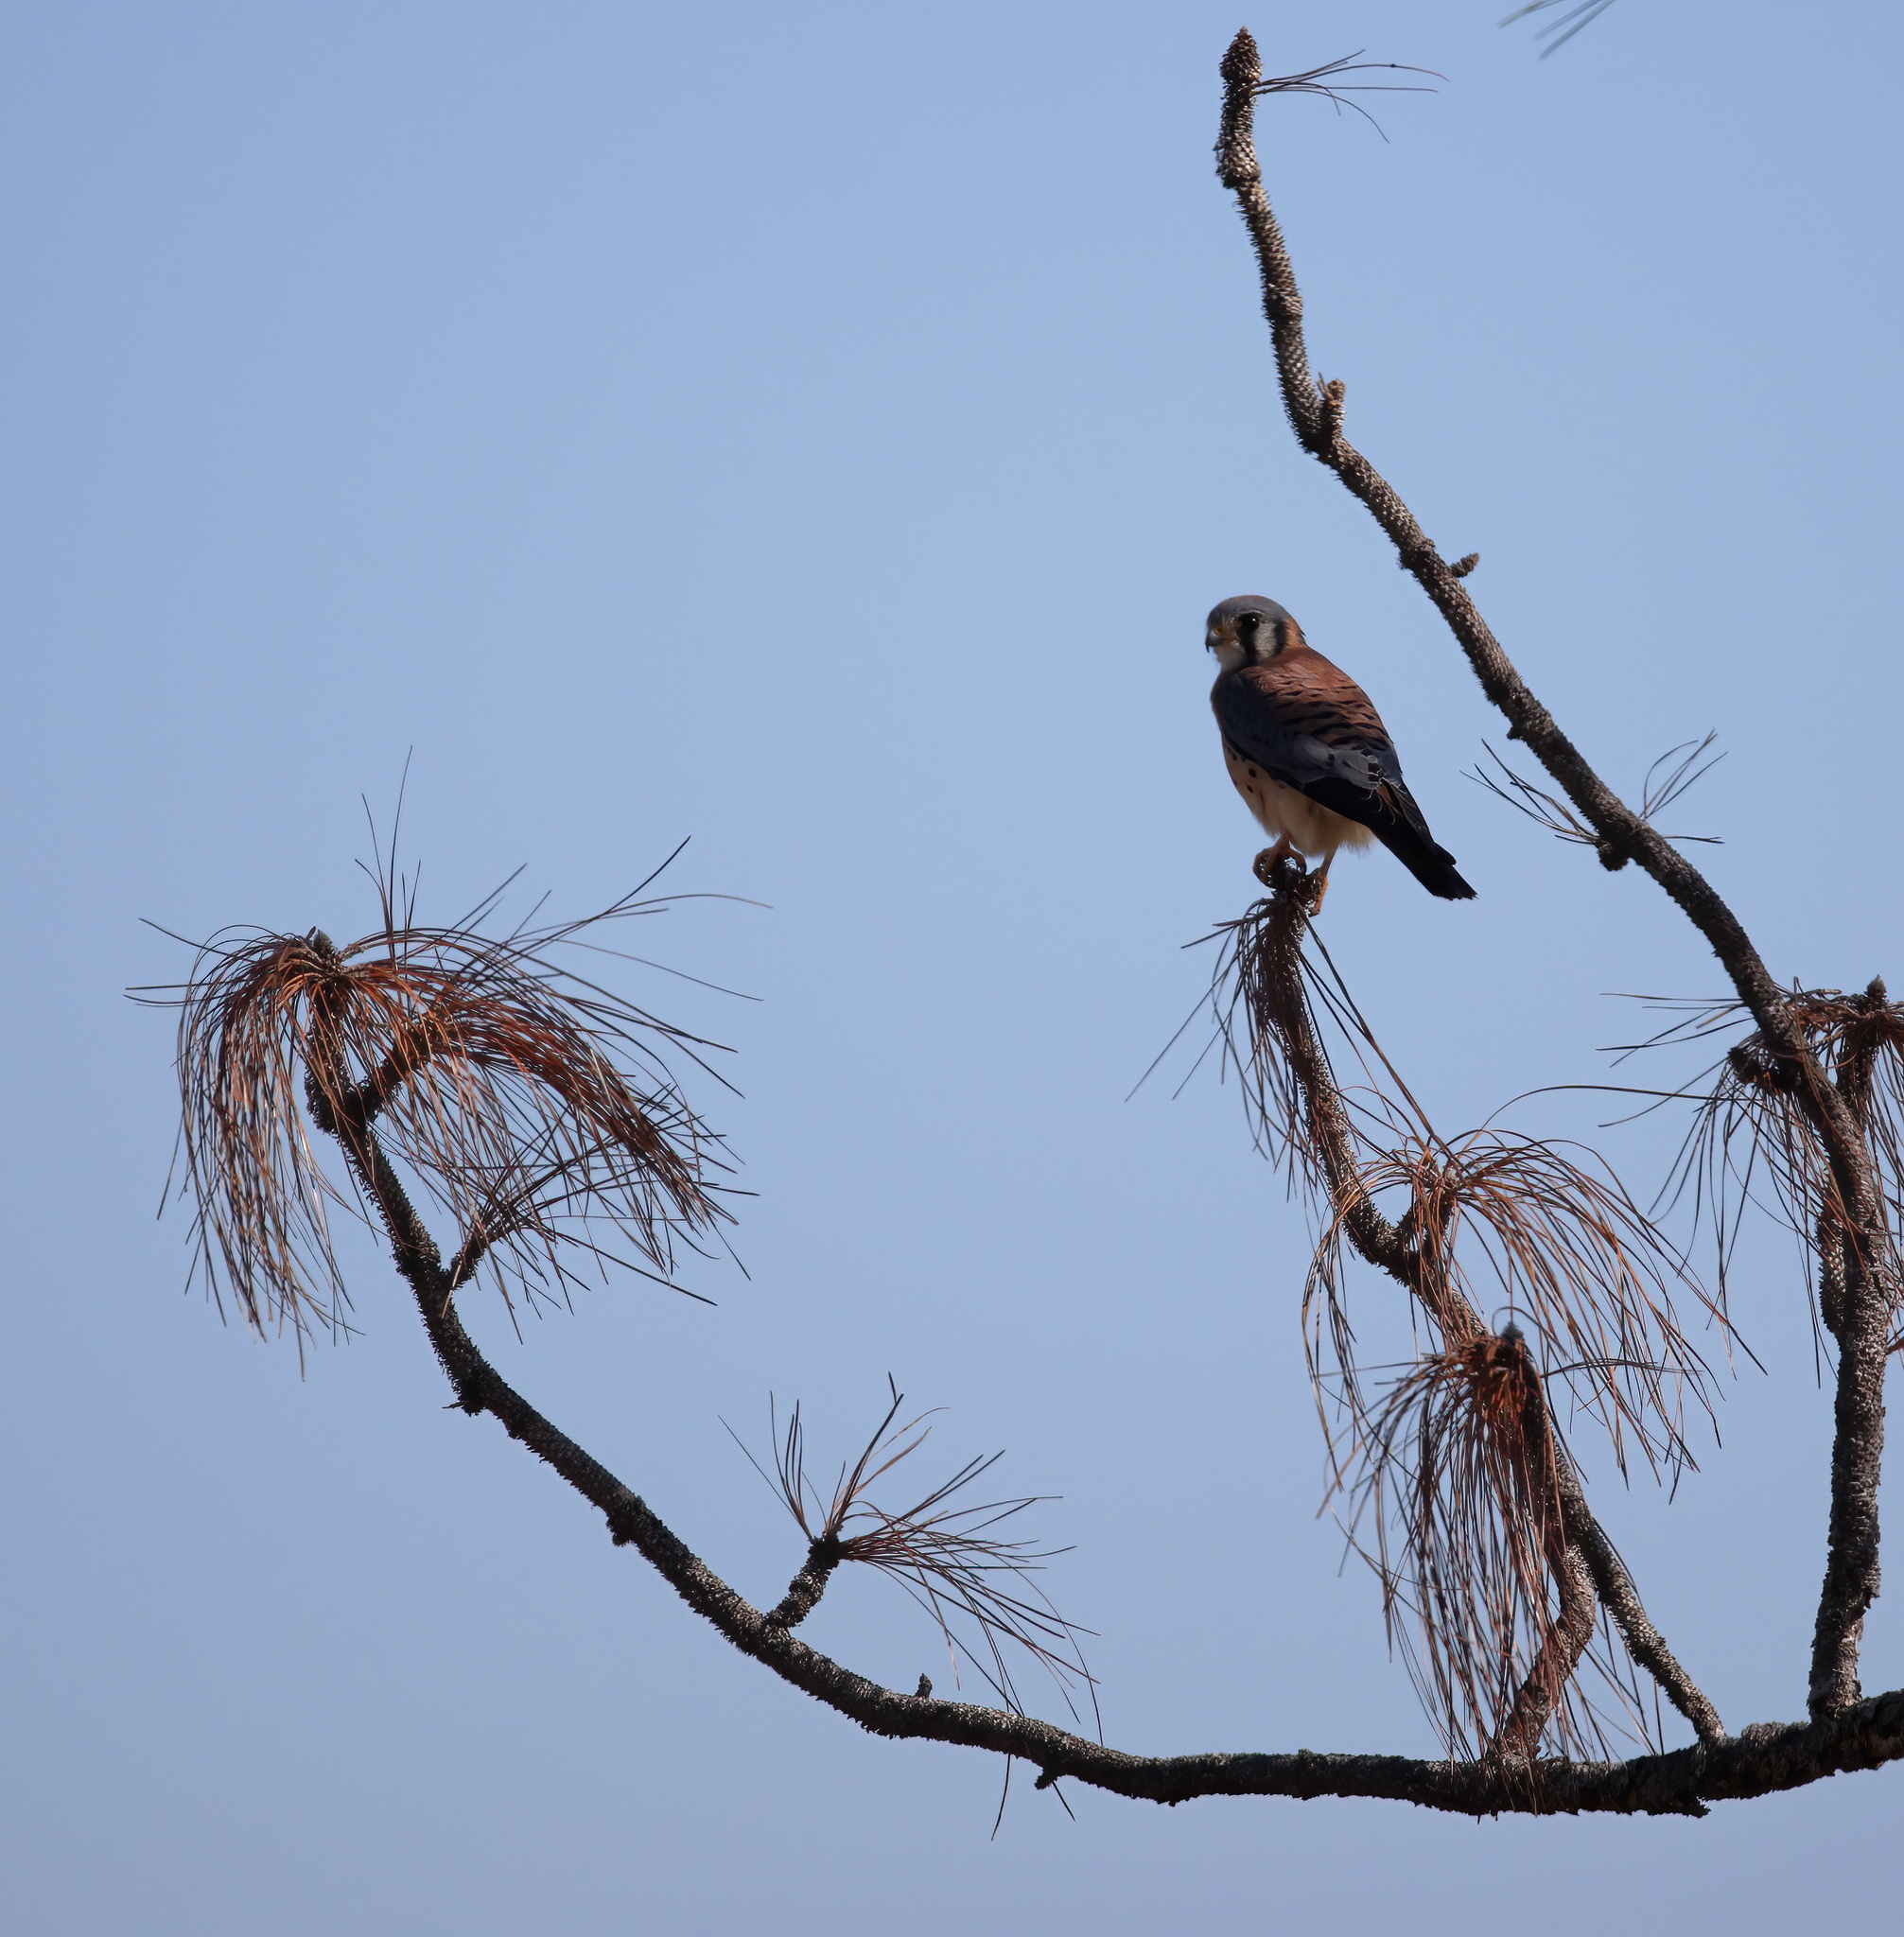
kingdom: Animalia
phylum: Chordata
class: Aves
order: Falconiformes
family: Falconidae
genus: Falco
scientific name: Falco sparverius
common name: American kestrel
